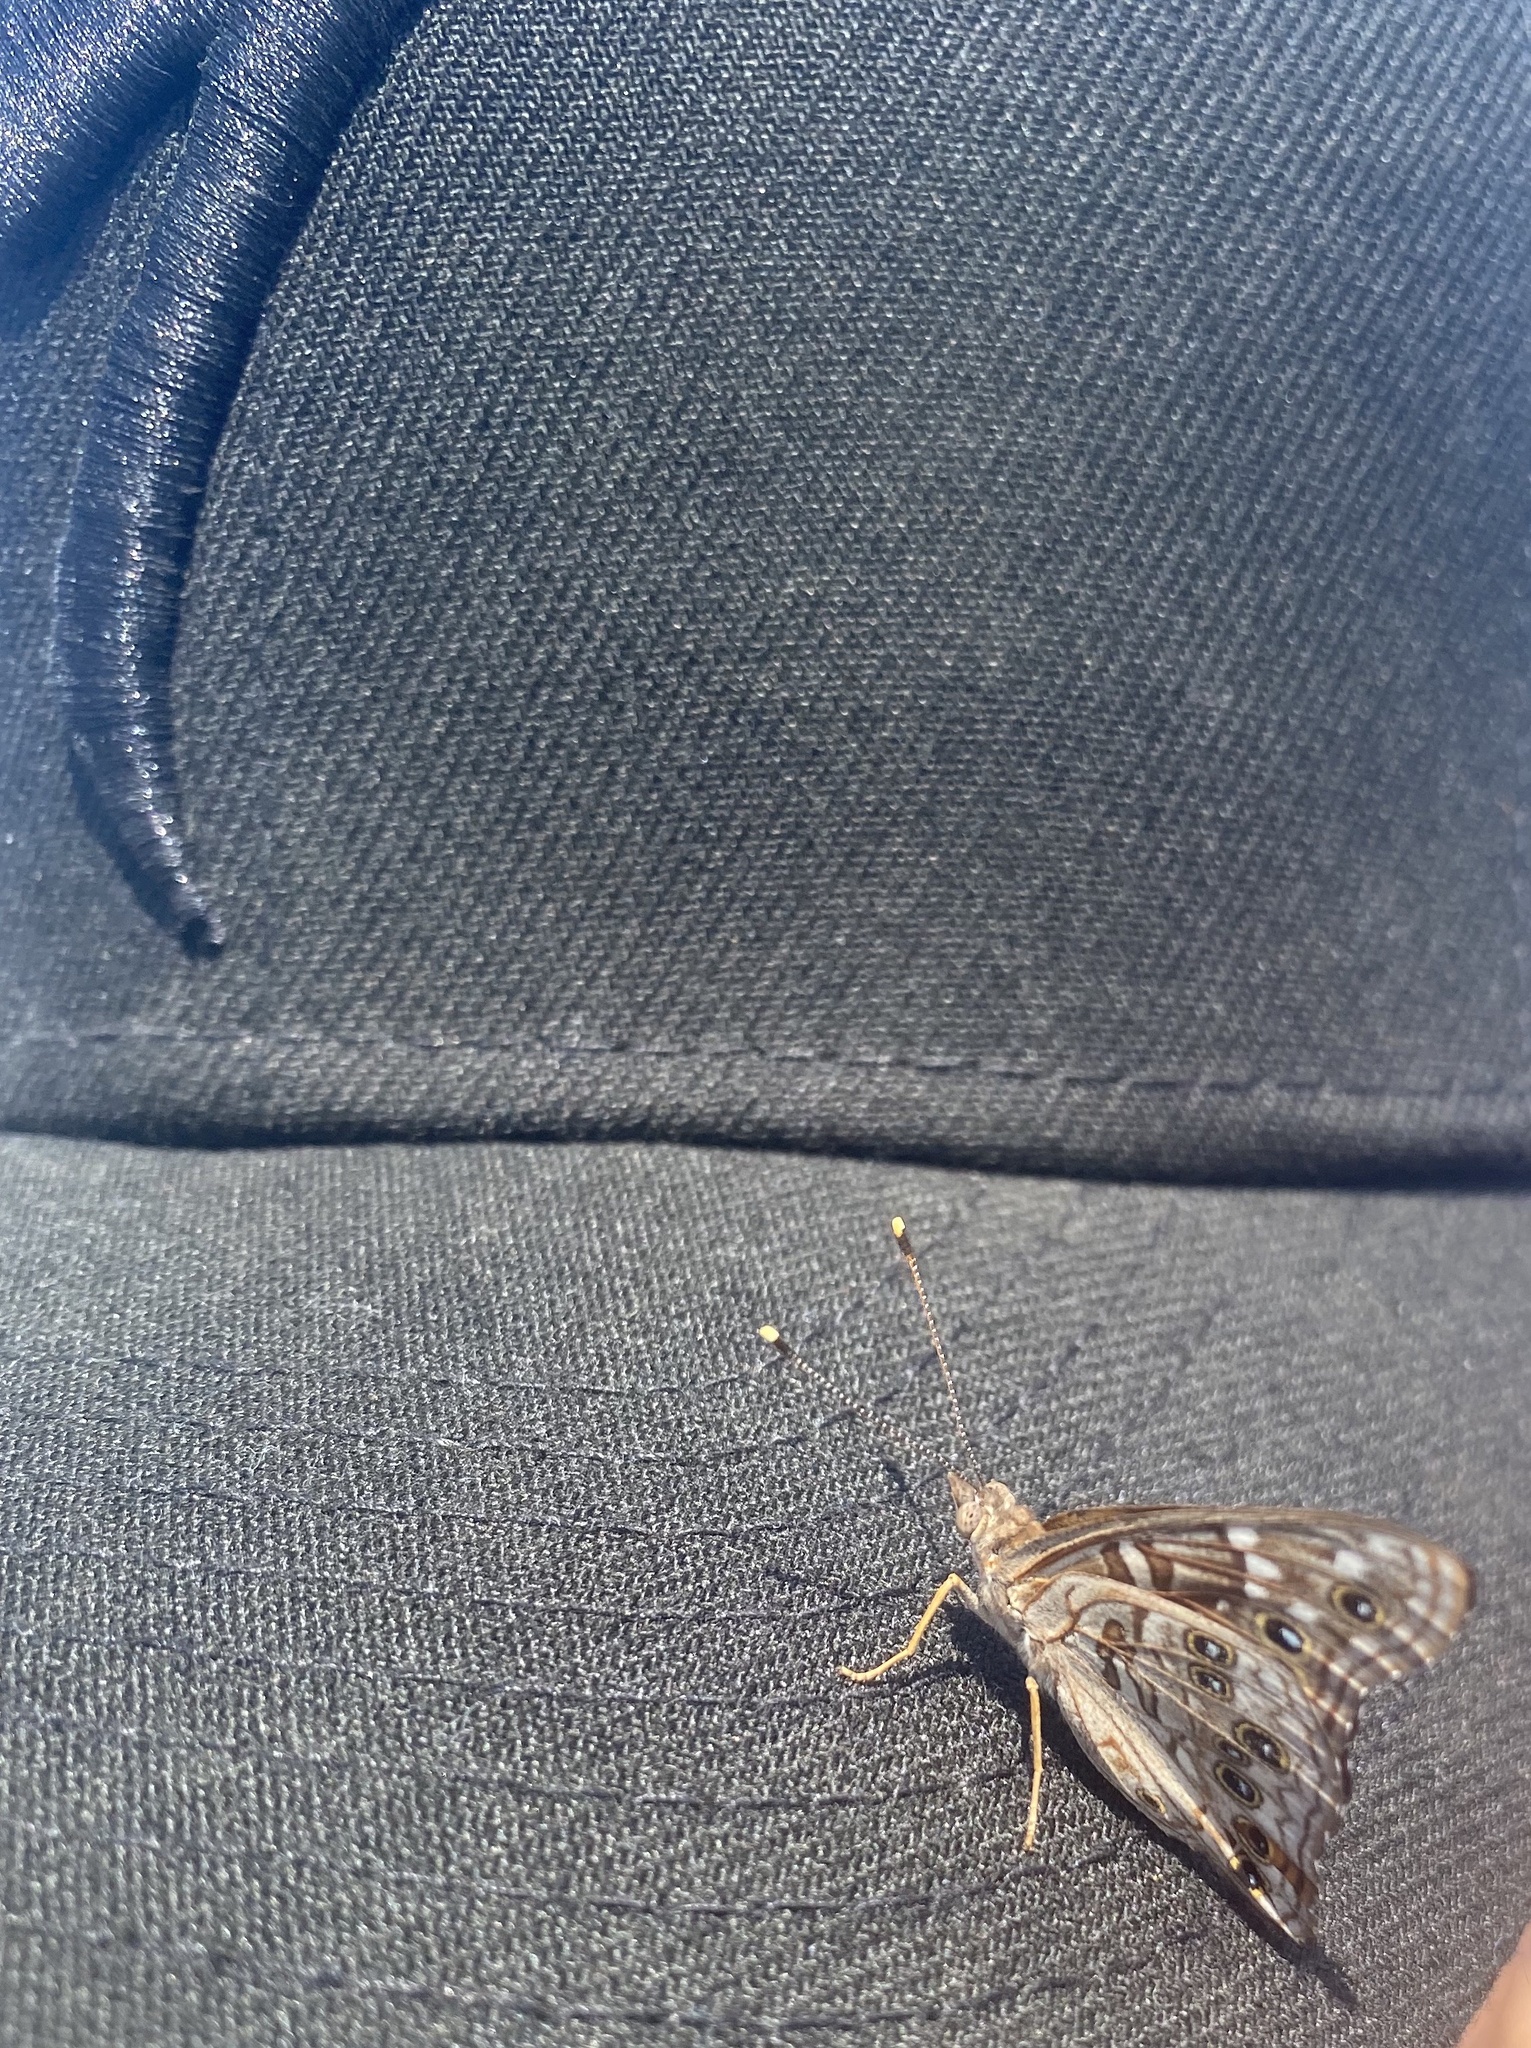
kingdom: Animalia
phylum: Arthropoda
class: Insecta
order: Lepidoptera
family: Nymphalidae
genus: Asterocampa
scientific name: Asterocampa leilia
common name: Empress leilia
